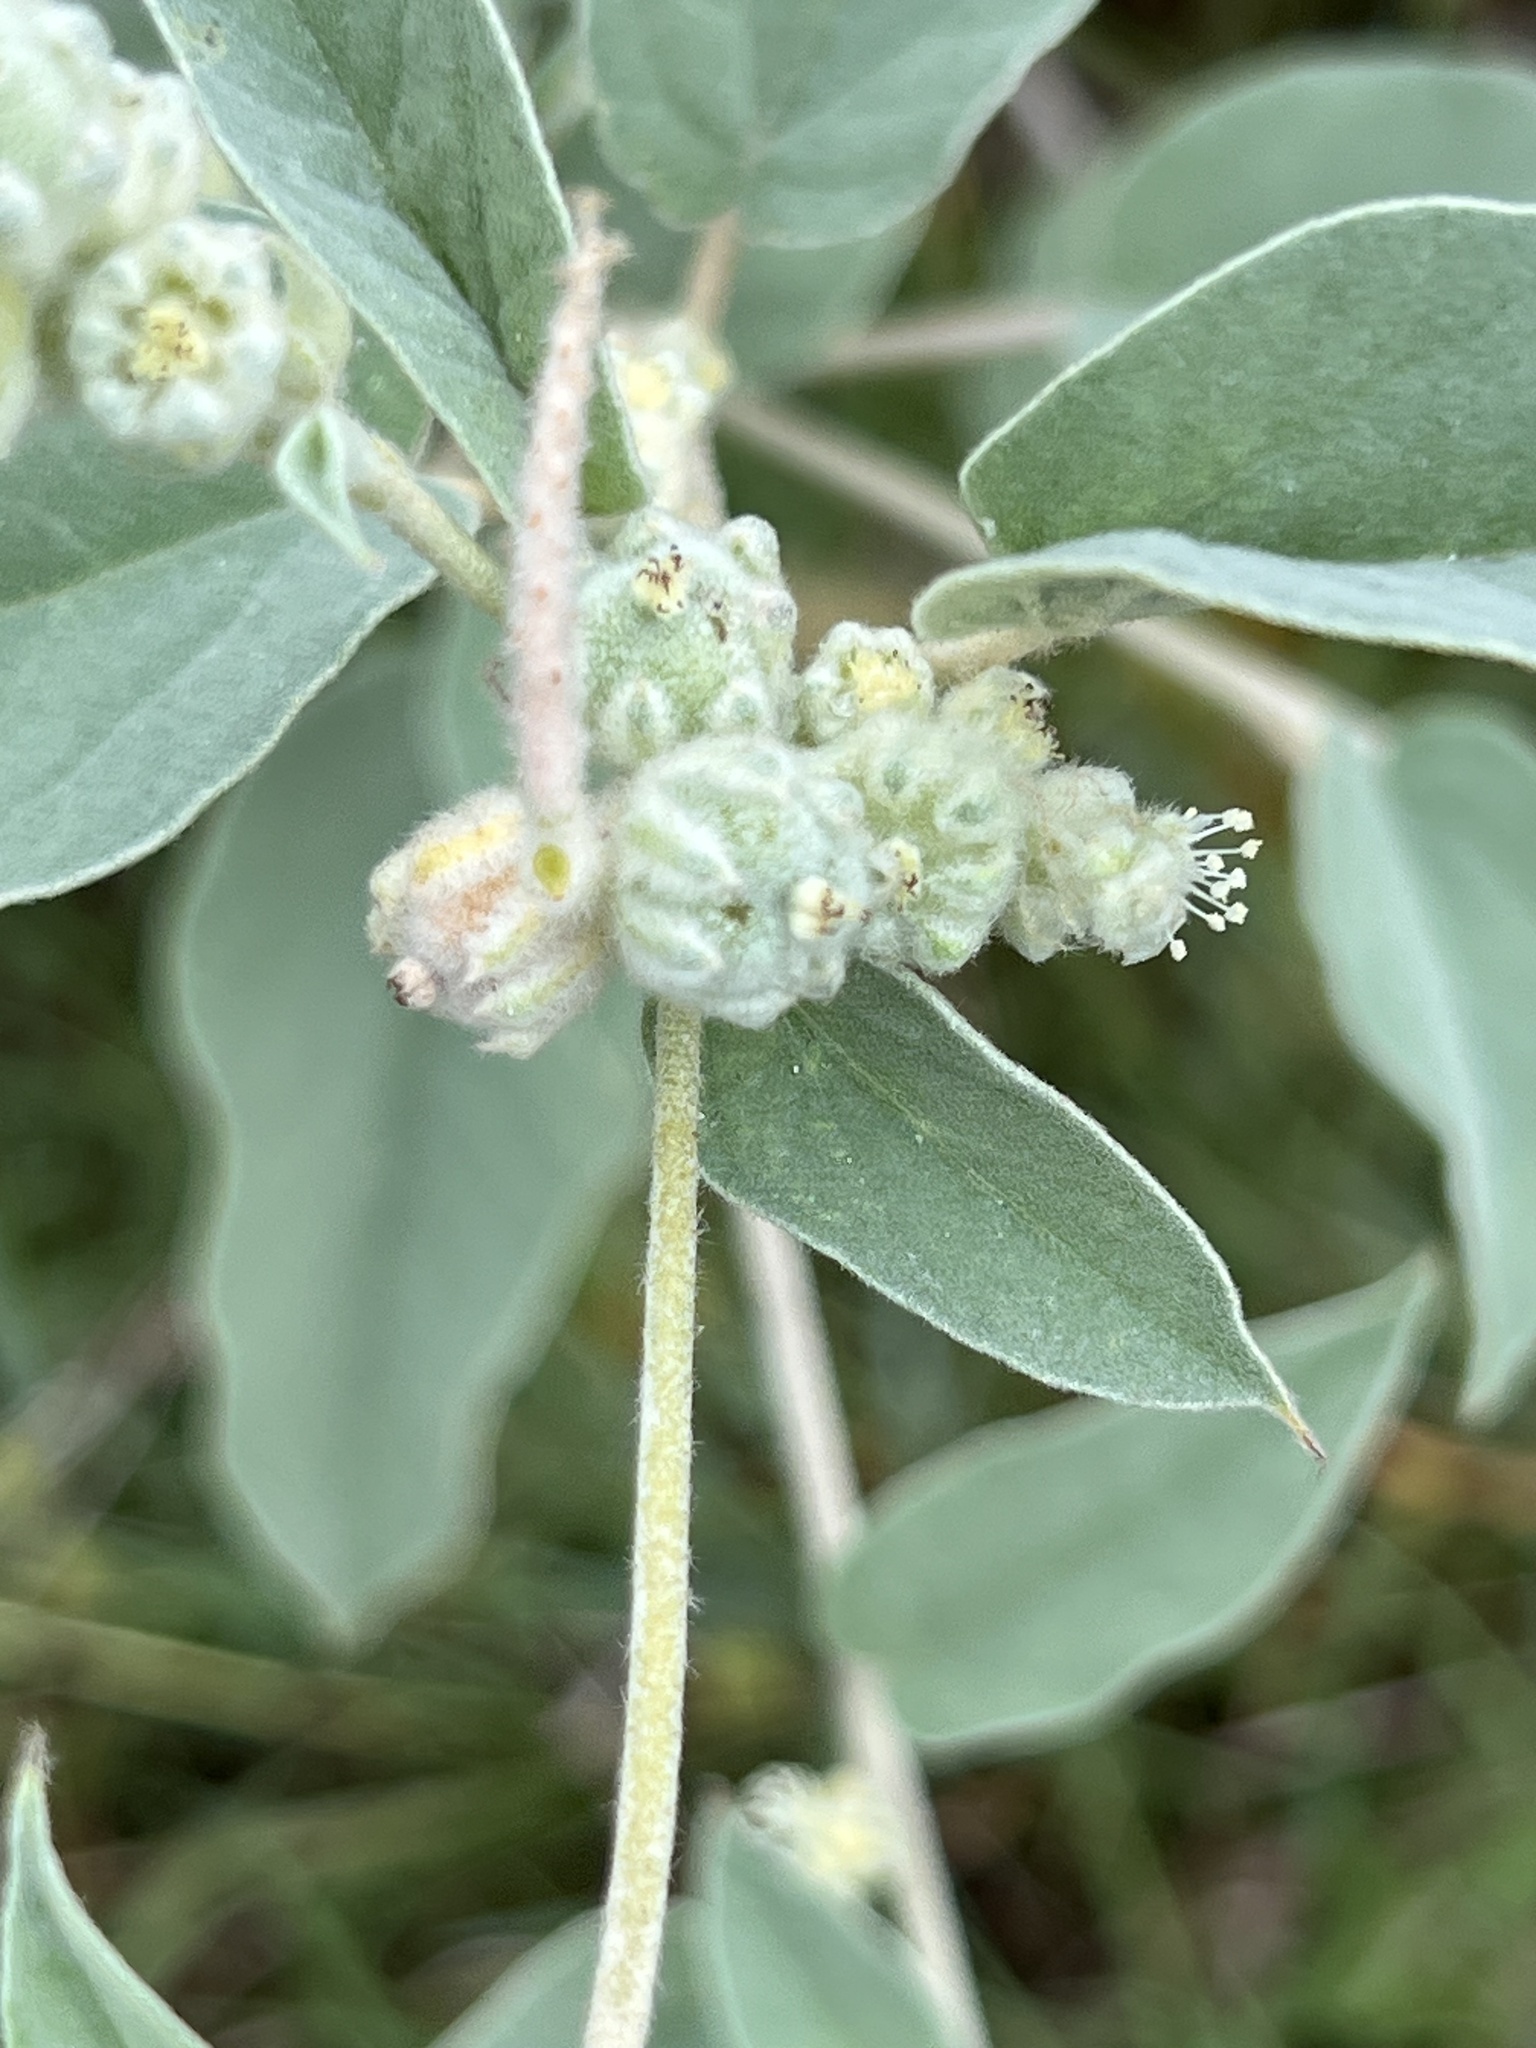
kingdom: Plantae
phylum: Tracheophyta
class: Magnoliopsida
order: Malpighiales
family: Euphorbiaceae
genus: Croton
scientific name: Croton lindheimeri
